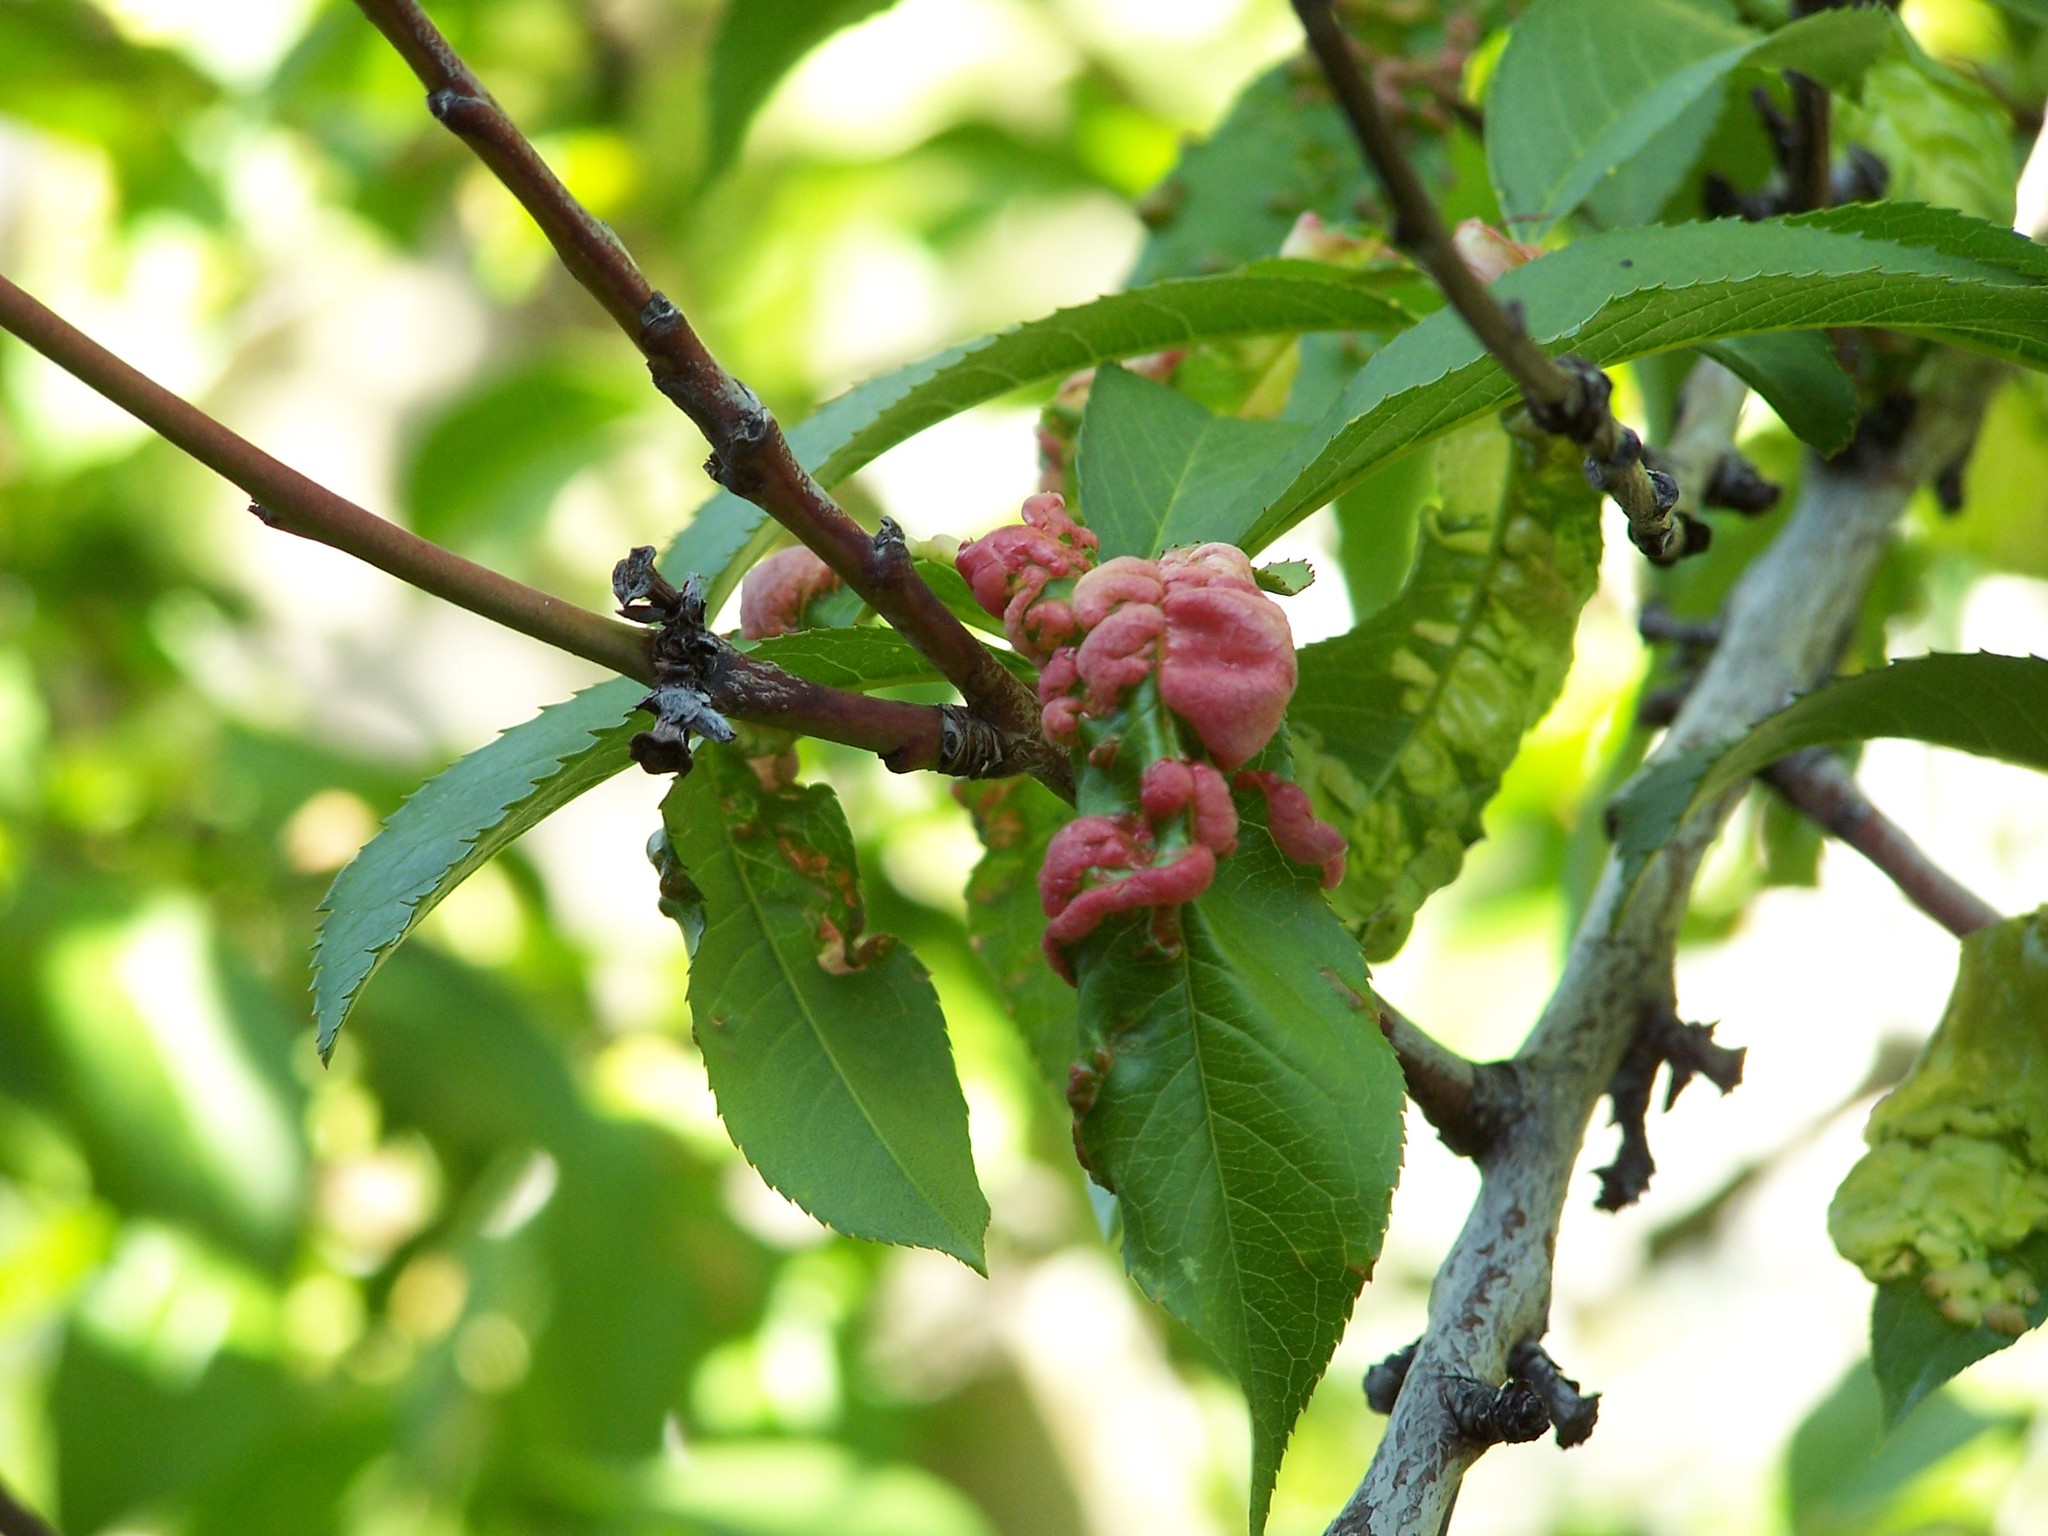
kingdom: Fungi
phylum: Ascomycota
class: Taphrinomycetes
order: Taphrinales
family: Taphrinaceae
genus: Taphrina
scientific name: Taphrina deformans
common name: Peach leaf curl
